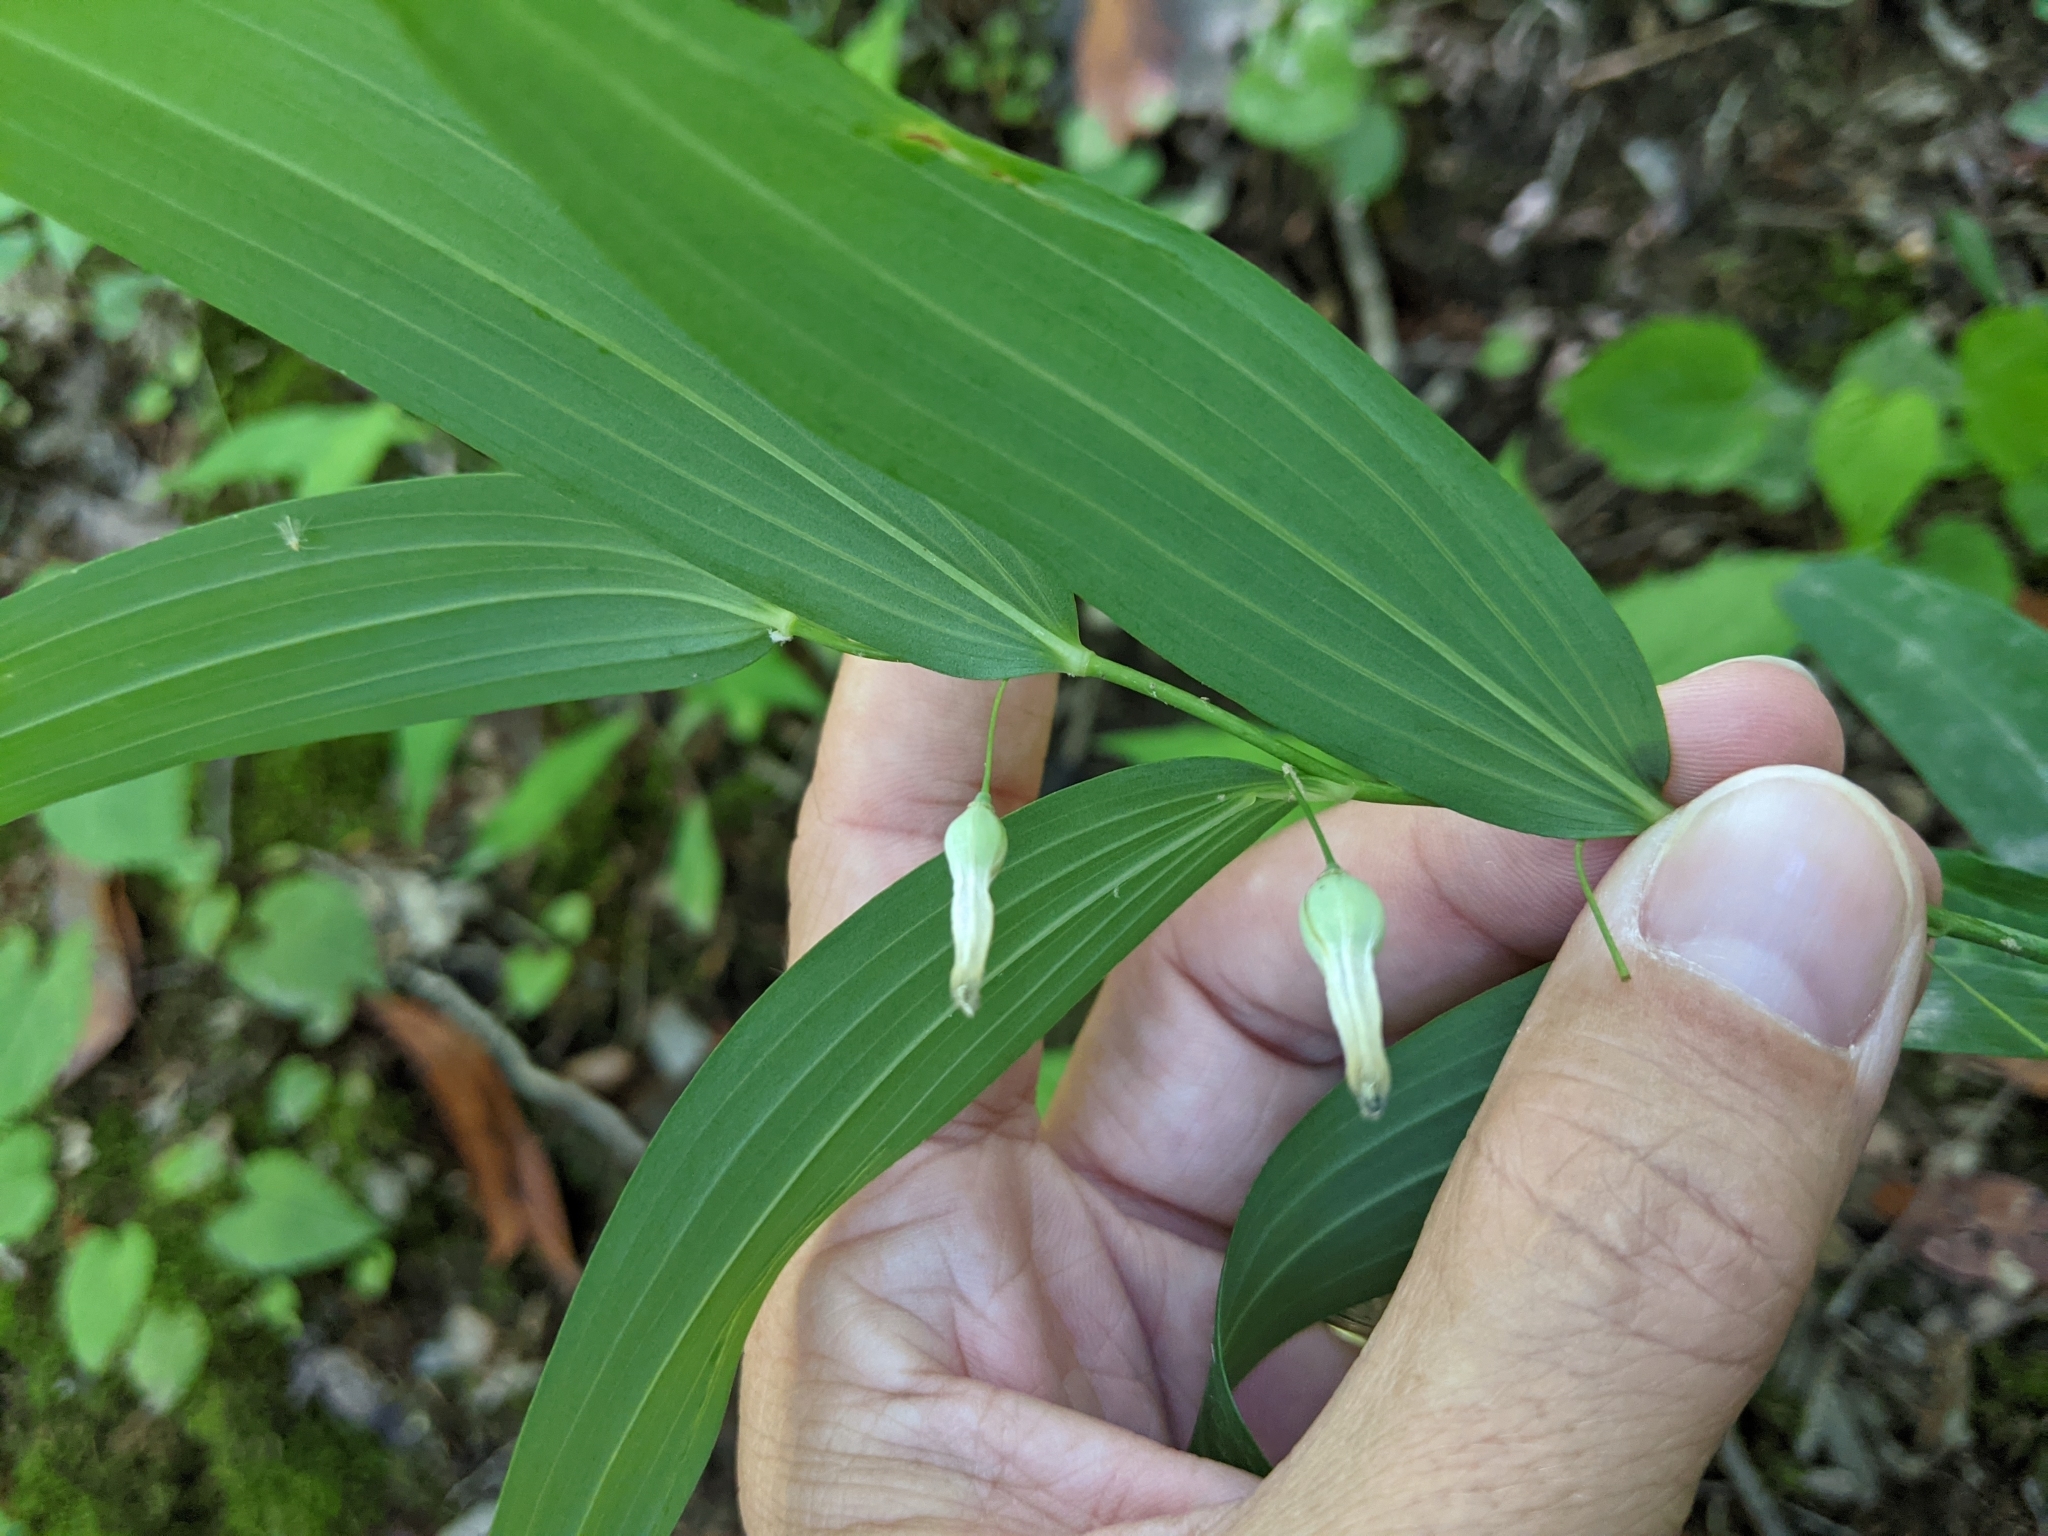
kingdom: Plantae
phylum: Tracheophyta
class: Liliopsida
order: Asparagales
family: Asparagaceae
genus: Polygonatum
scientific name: Polygonatum biflorum
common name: American solomon's-seal
